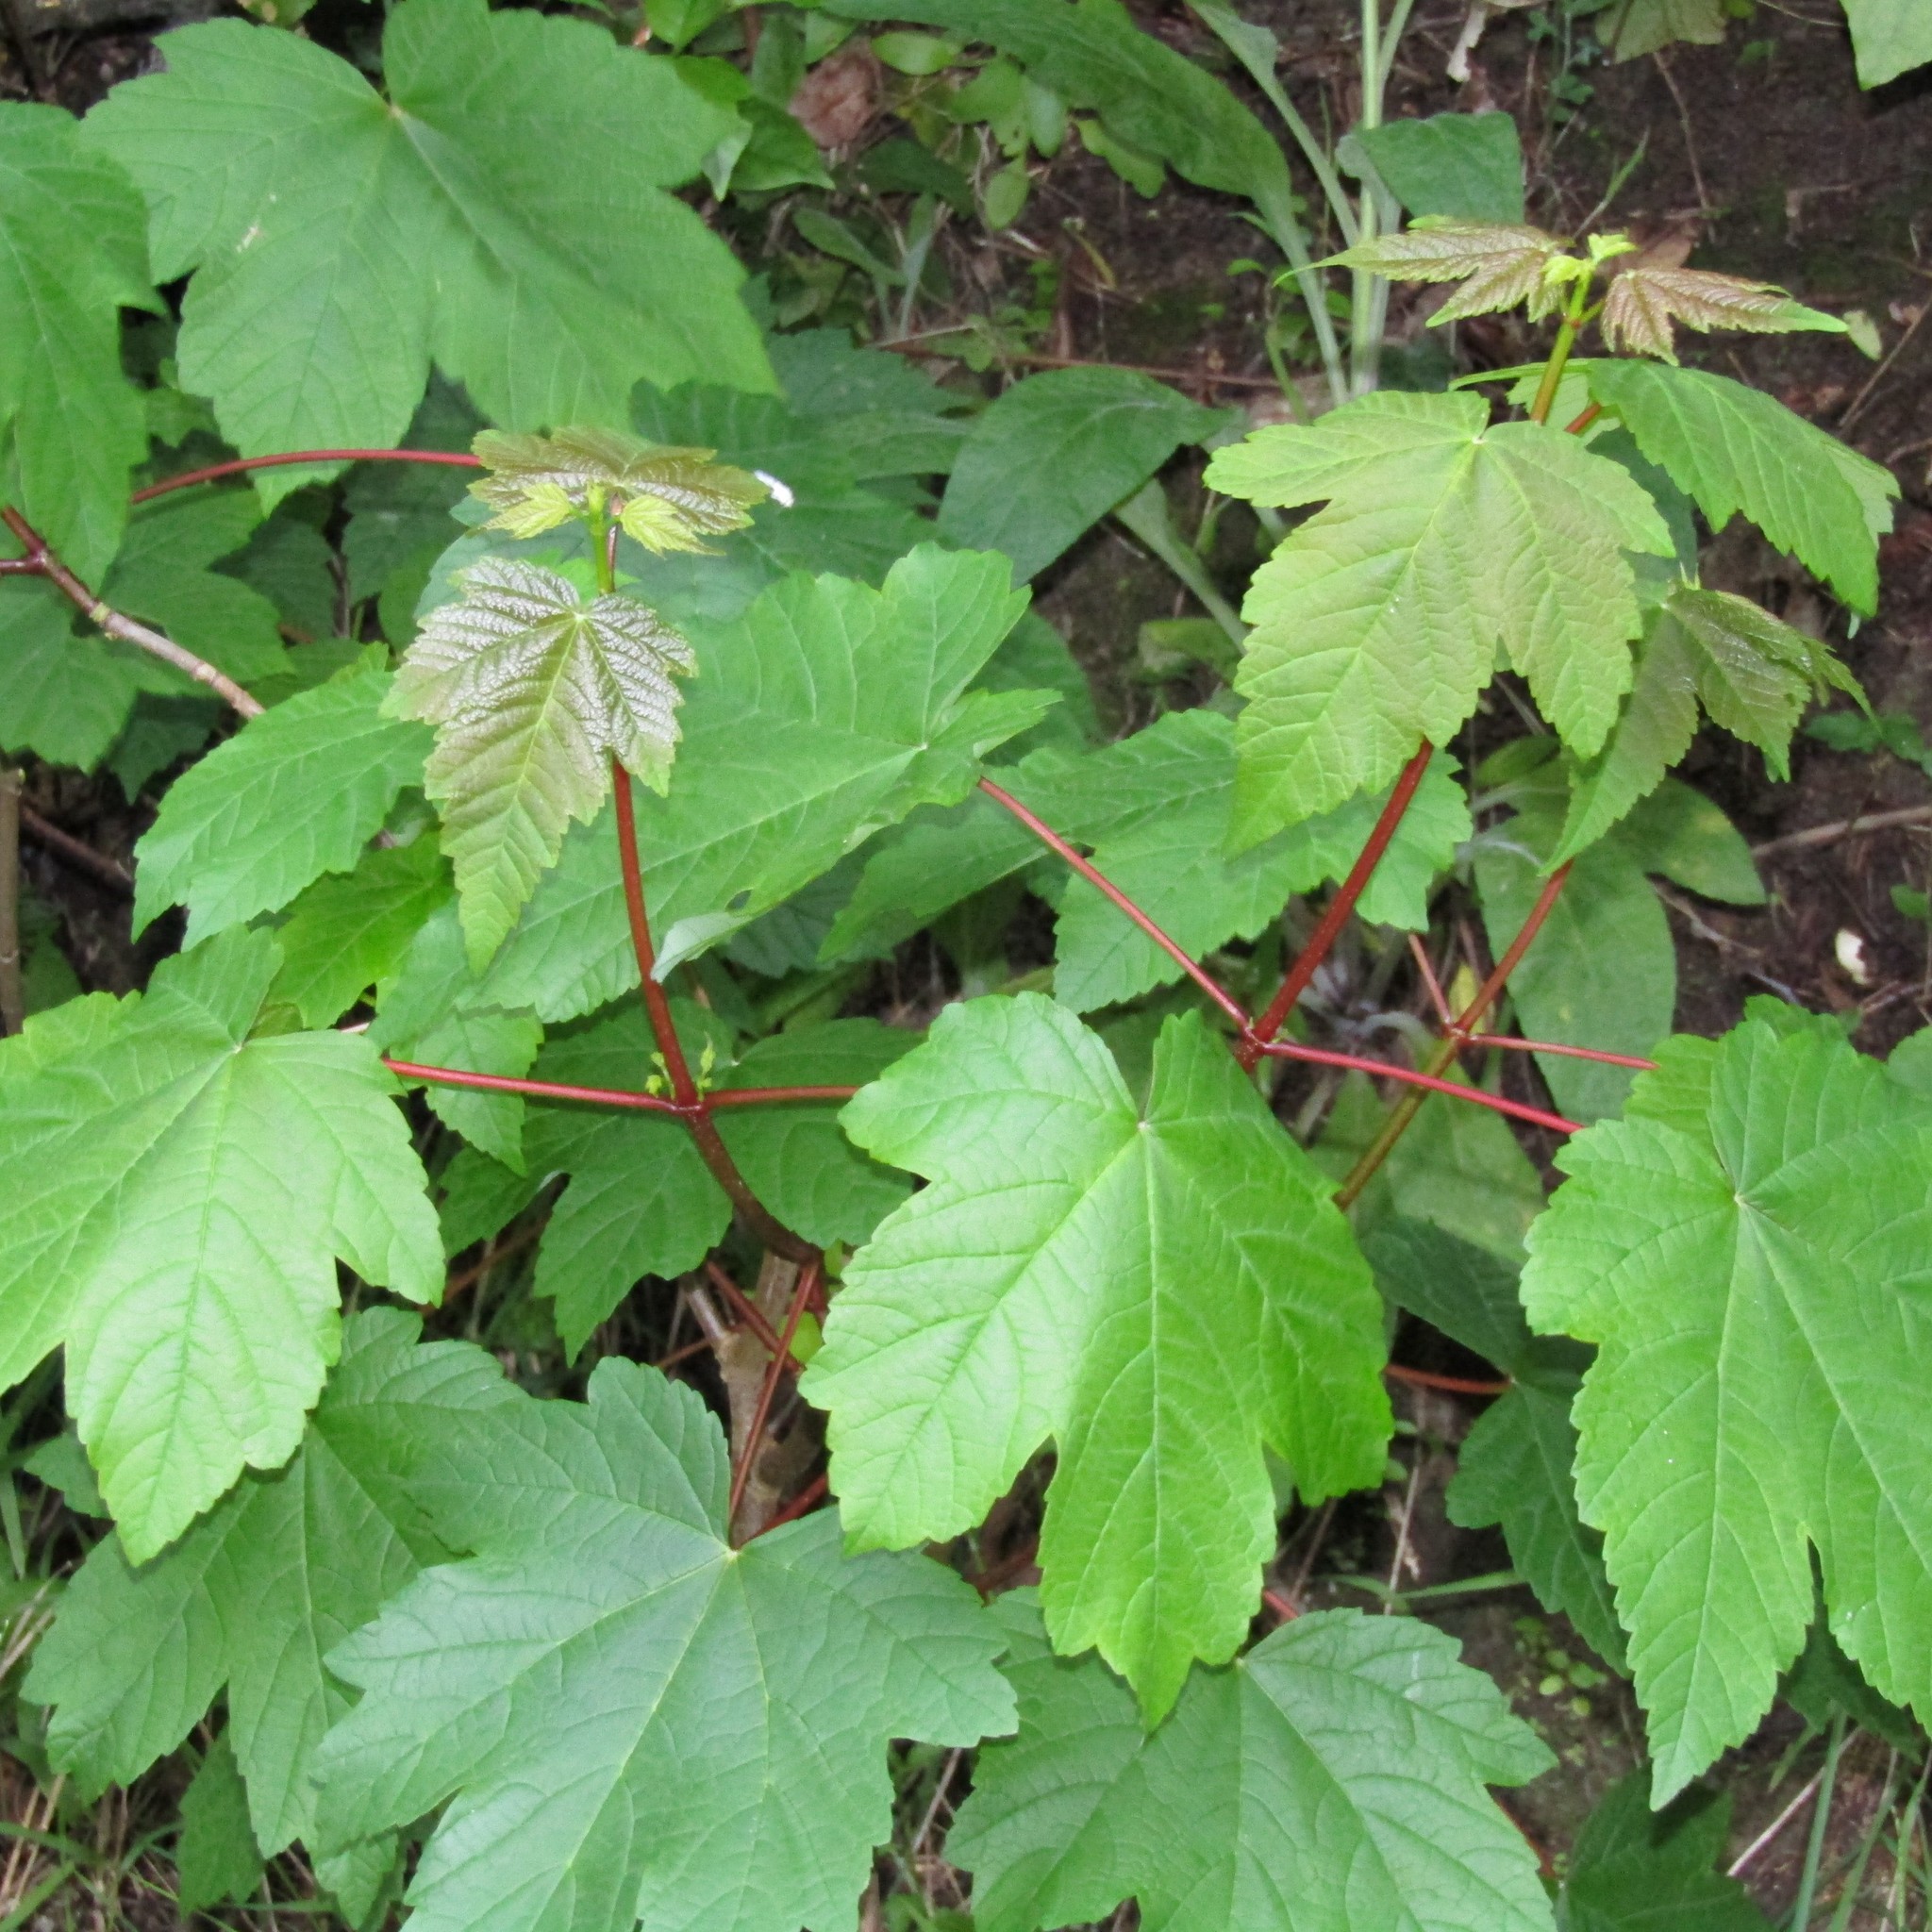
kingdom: Plantae
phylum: Tracheophyta
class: Magnoliopsida
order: Sapindales
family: Sapindaceae
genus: Acer
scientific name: Acer pseudoplatanus
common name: Sycamore
